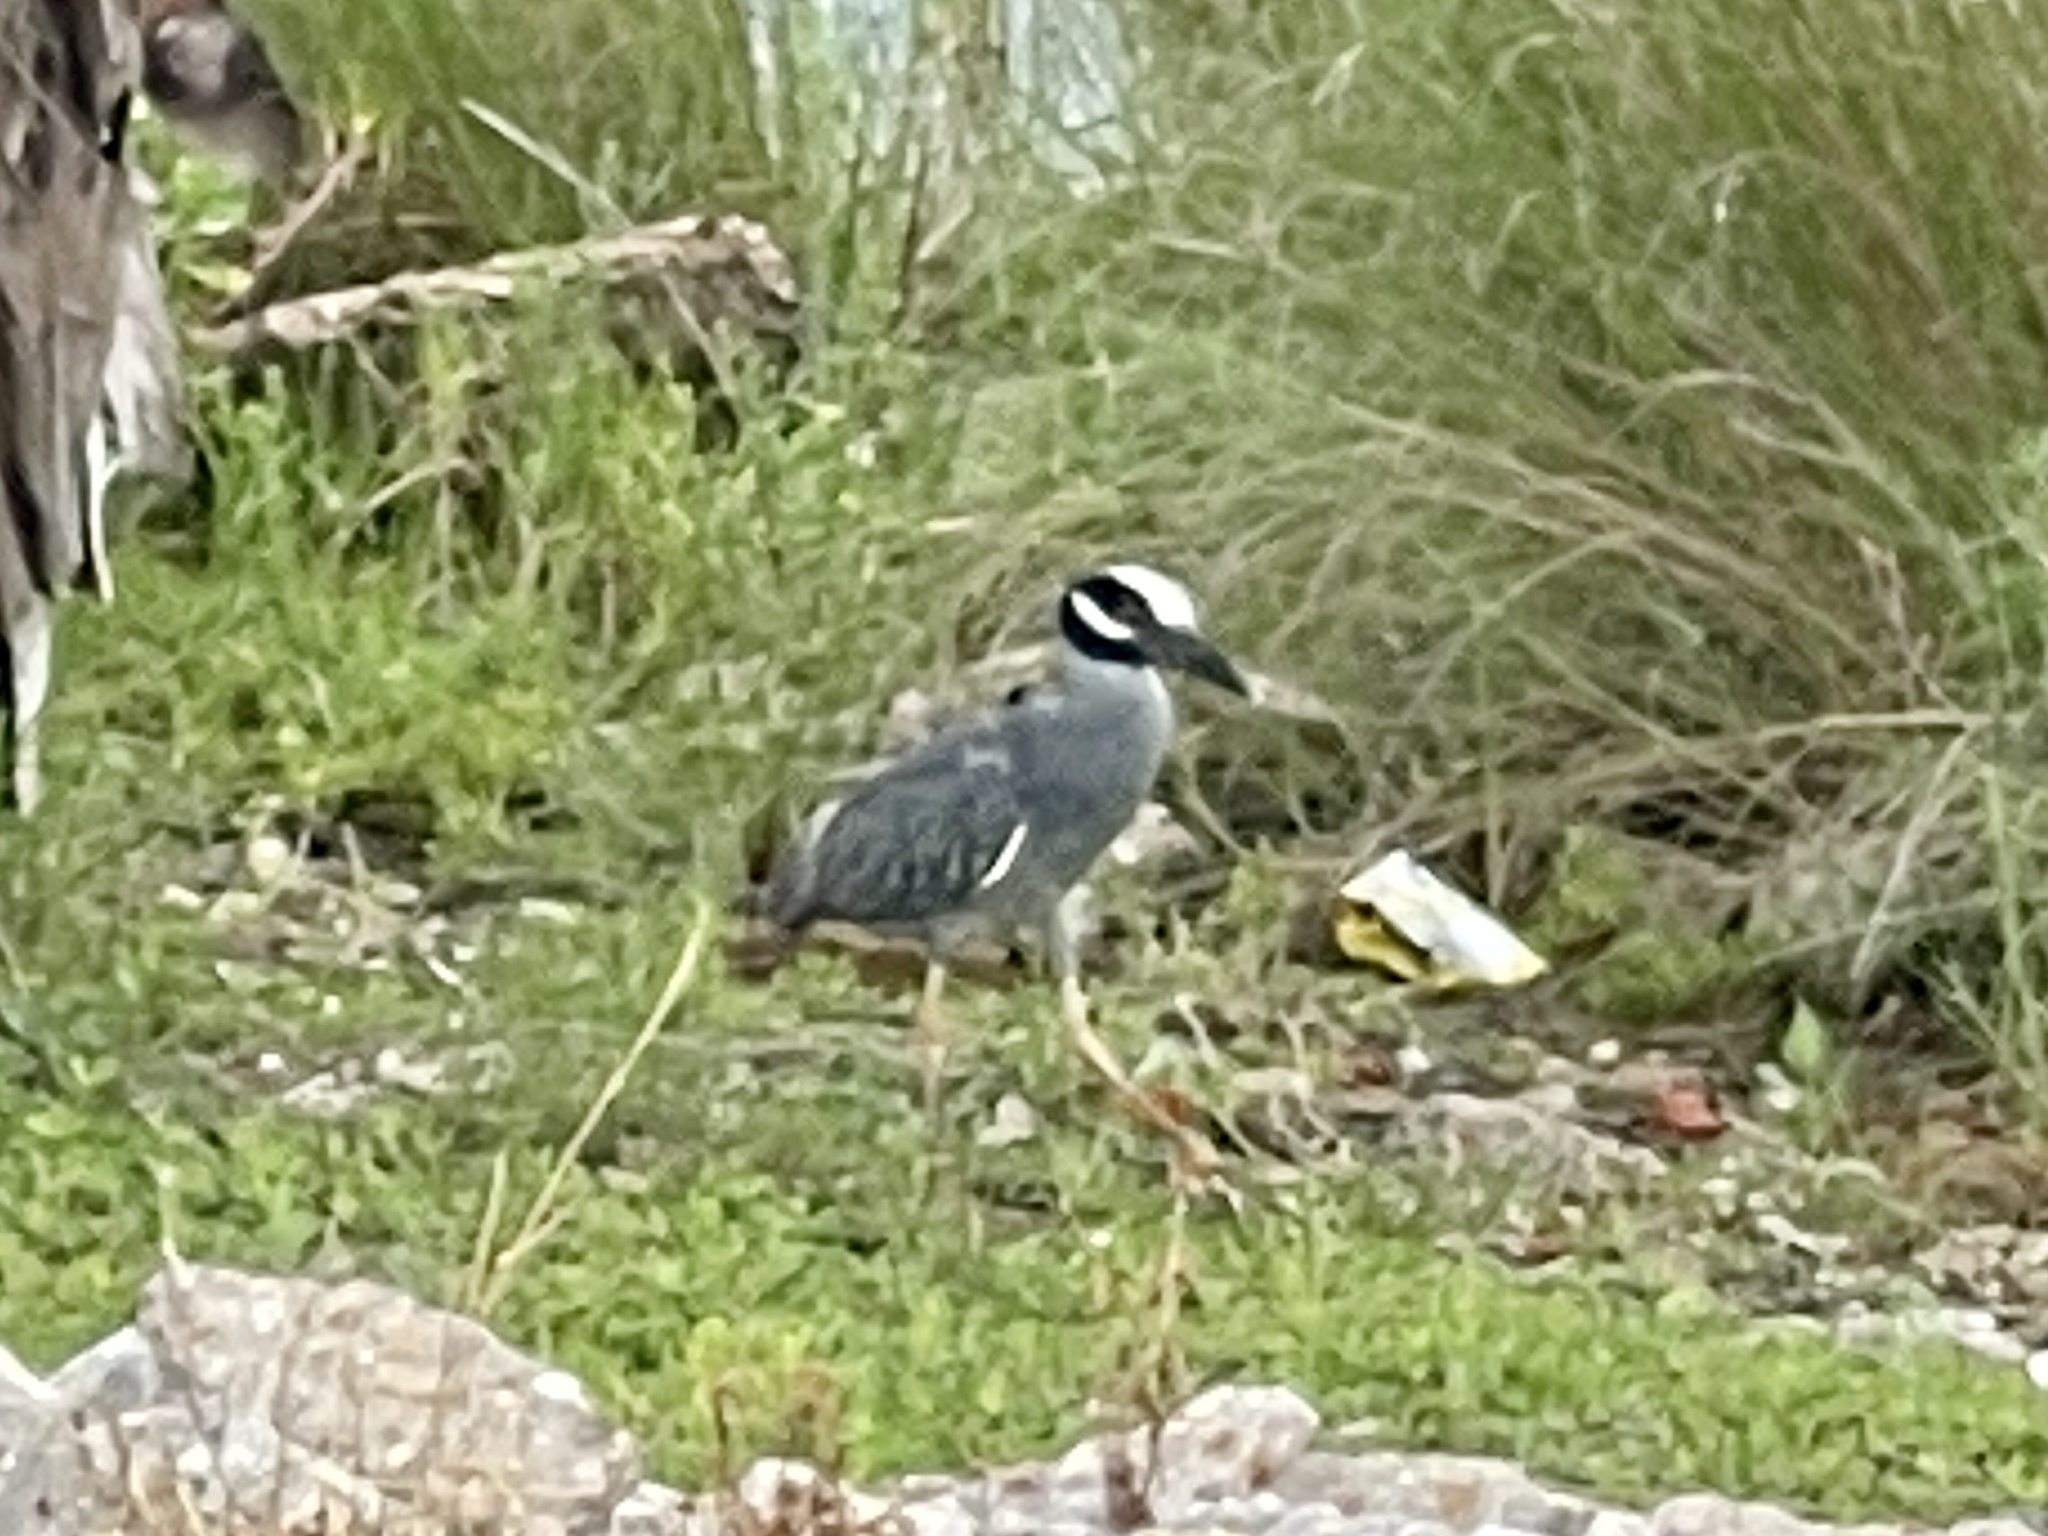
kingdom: Animalia
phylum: Chordata
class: Aves
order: Pelecaniformes
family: Ardeidae
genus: Nyctanassa
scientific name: Nyctanassa violacea
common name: Yellow-crowned night heron
